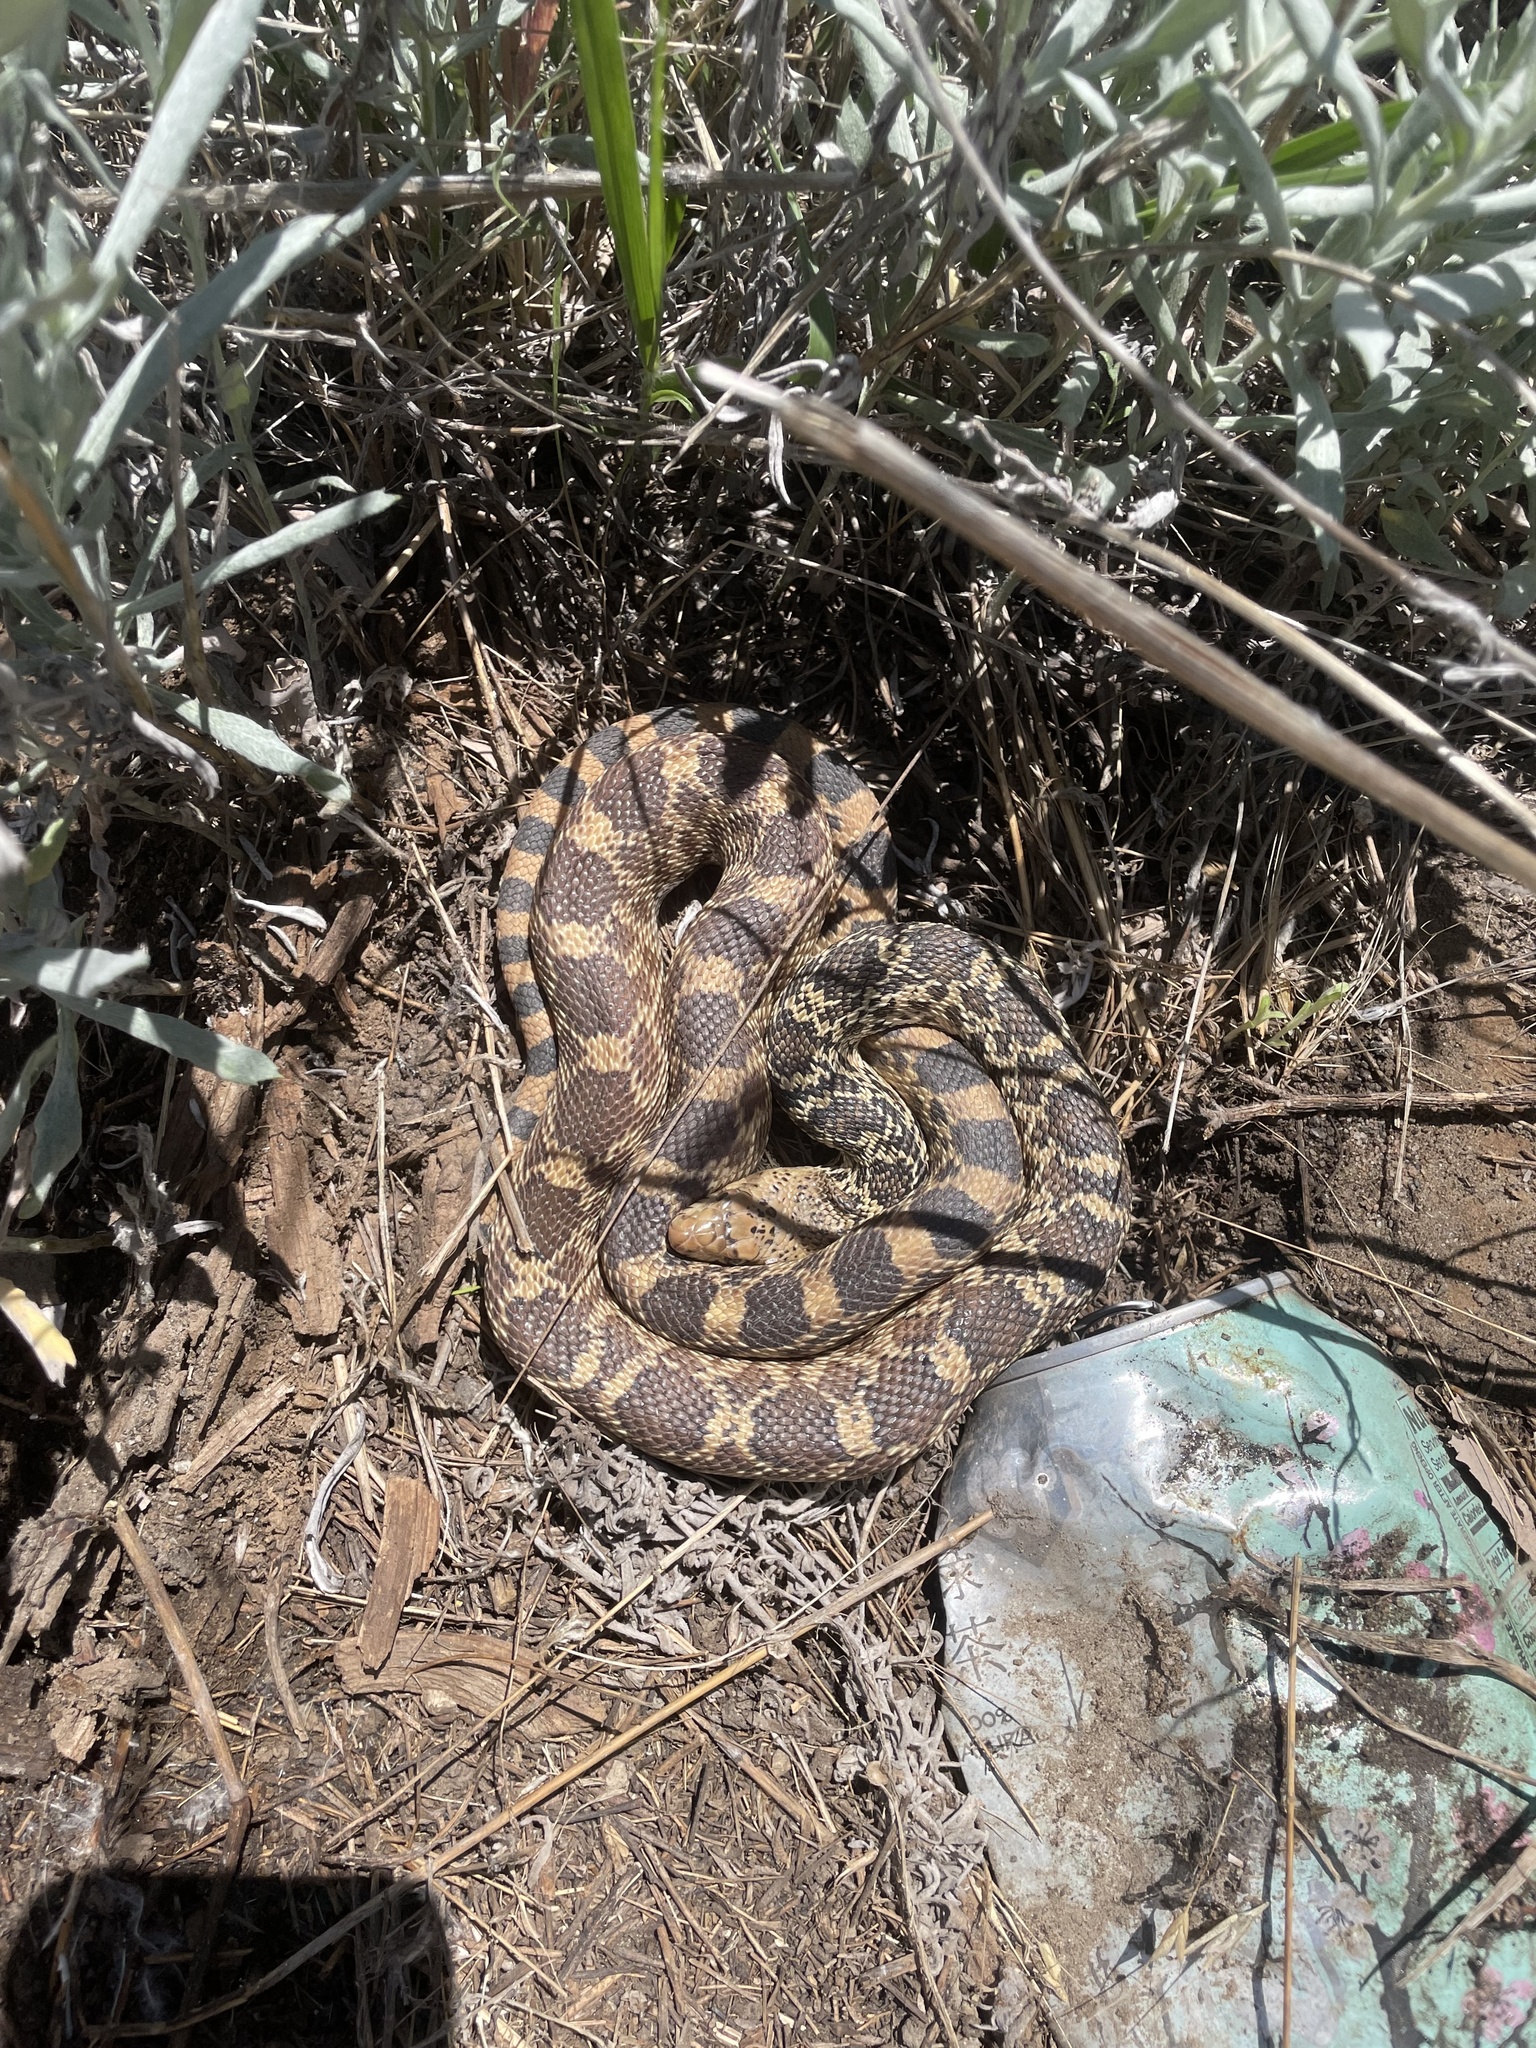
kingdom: Animalia
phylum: Chordata
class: Squamata
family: Colubridae
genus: Pituophis
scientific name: Pituophis catenifer
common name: Gopher snake
